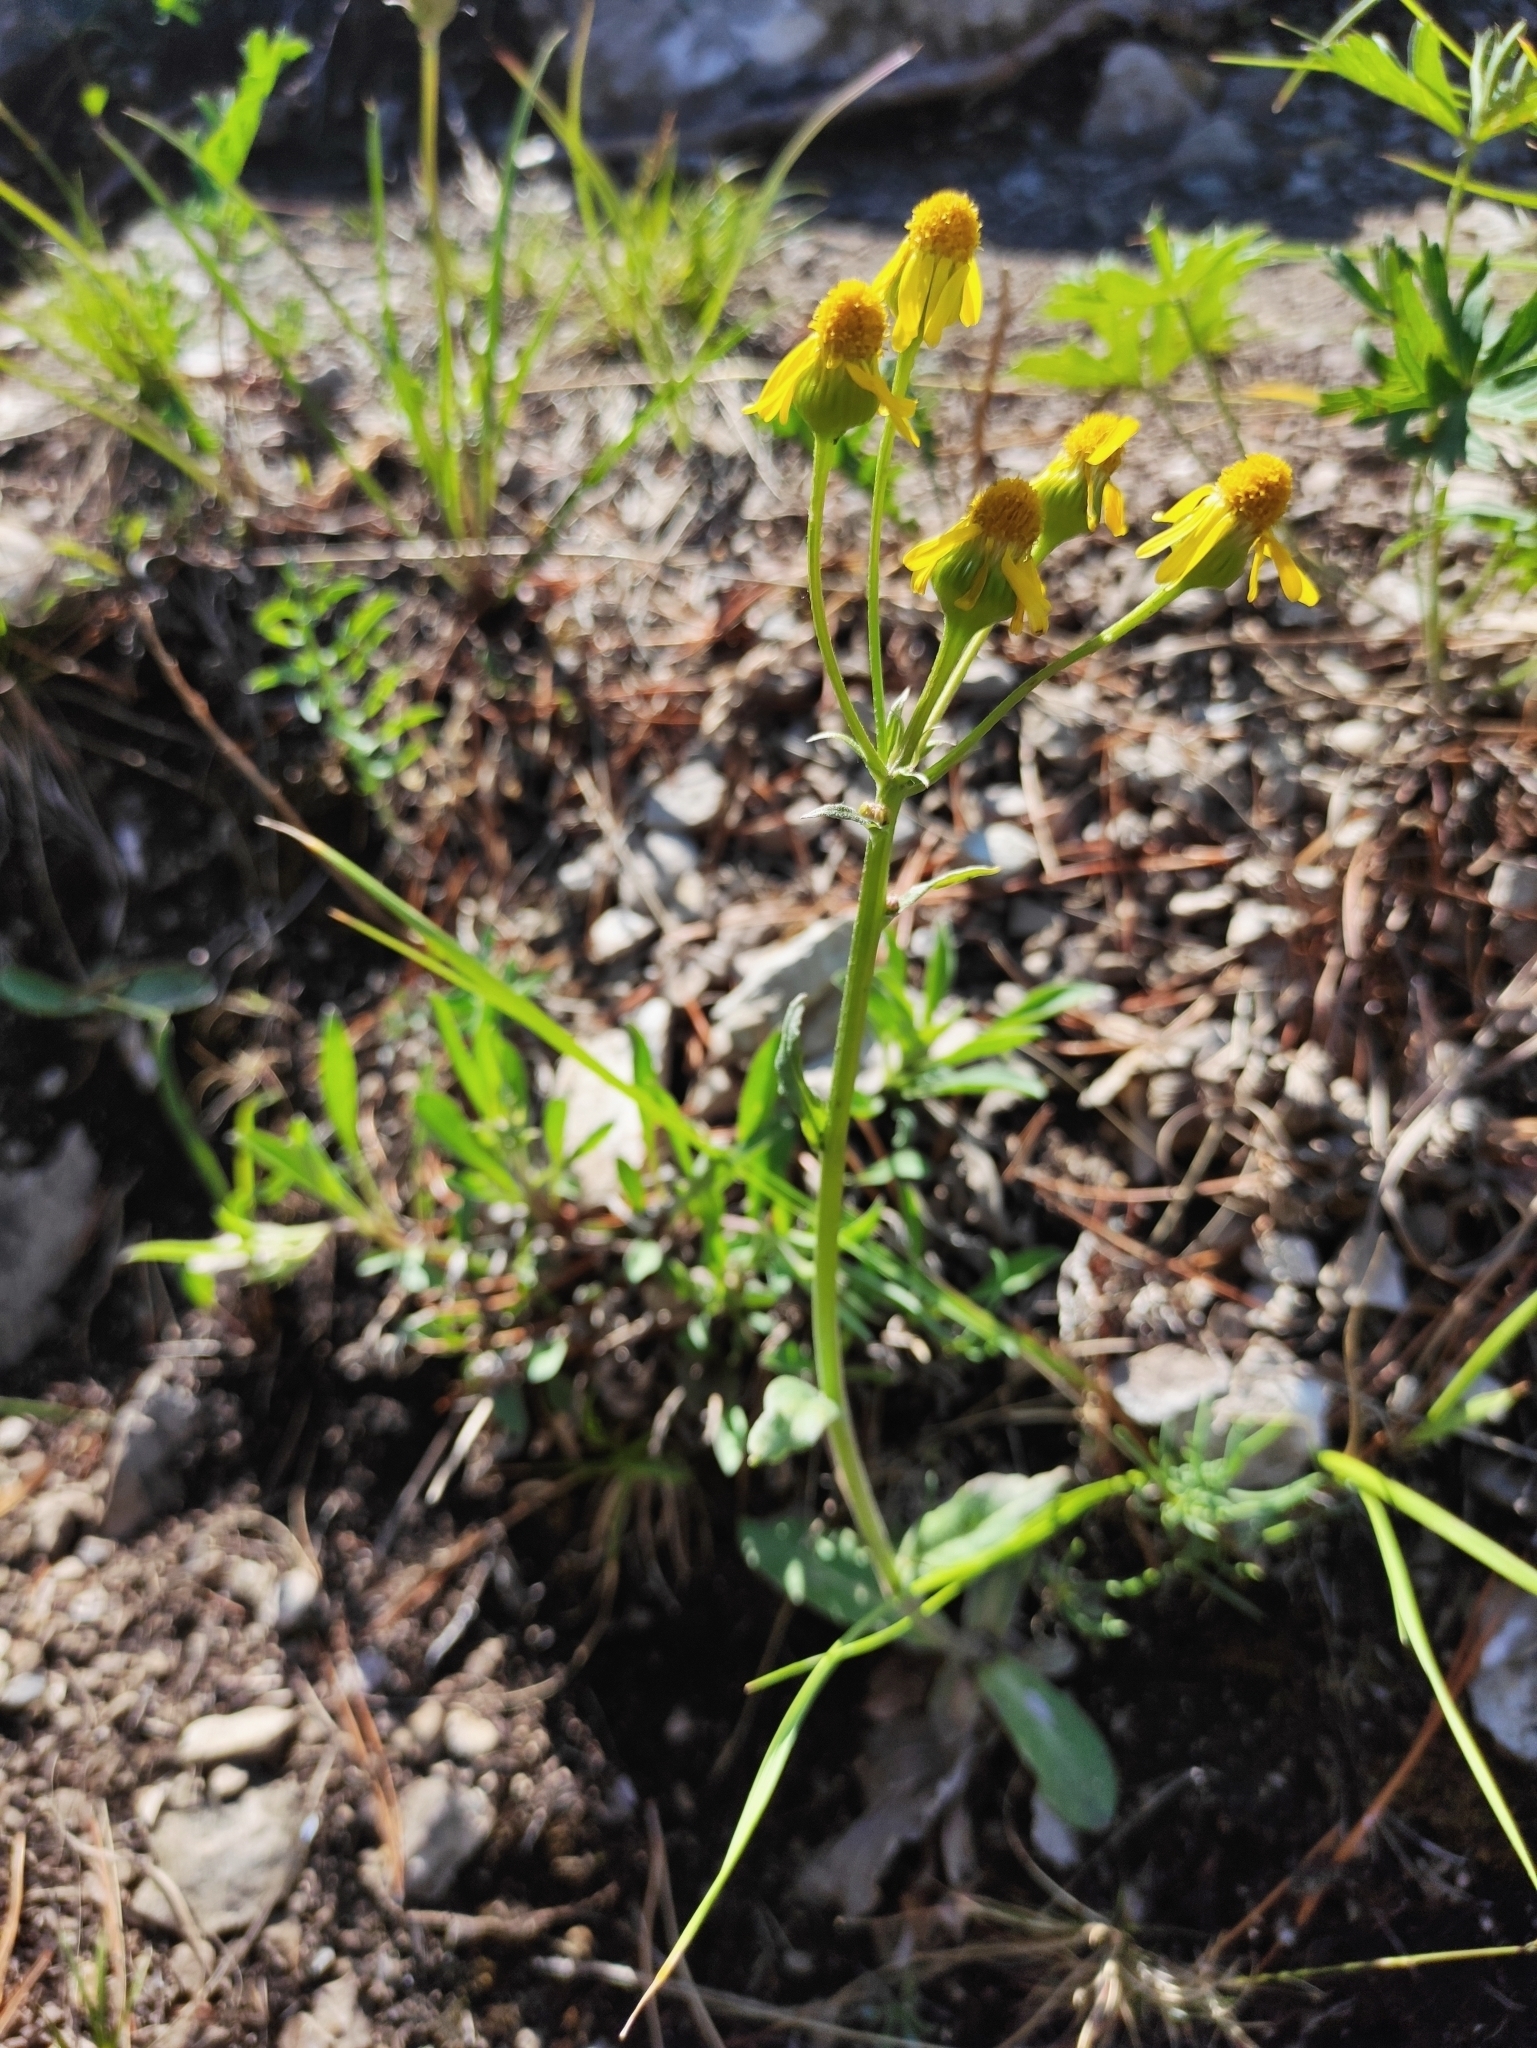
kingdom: Plantae
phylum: Tracheophyta
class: Magnoliopsida
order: Asterales
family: Asteraceae
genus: Tephroseris
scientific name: Tephroseris integrifolia
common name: Field fleawort
